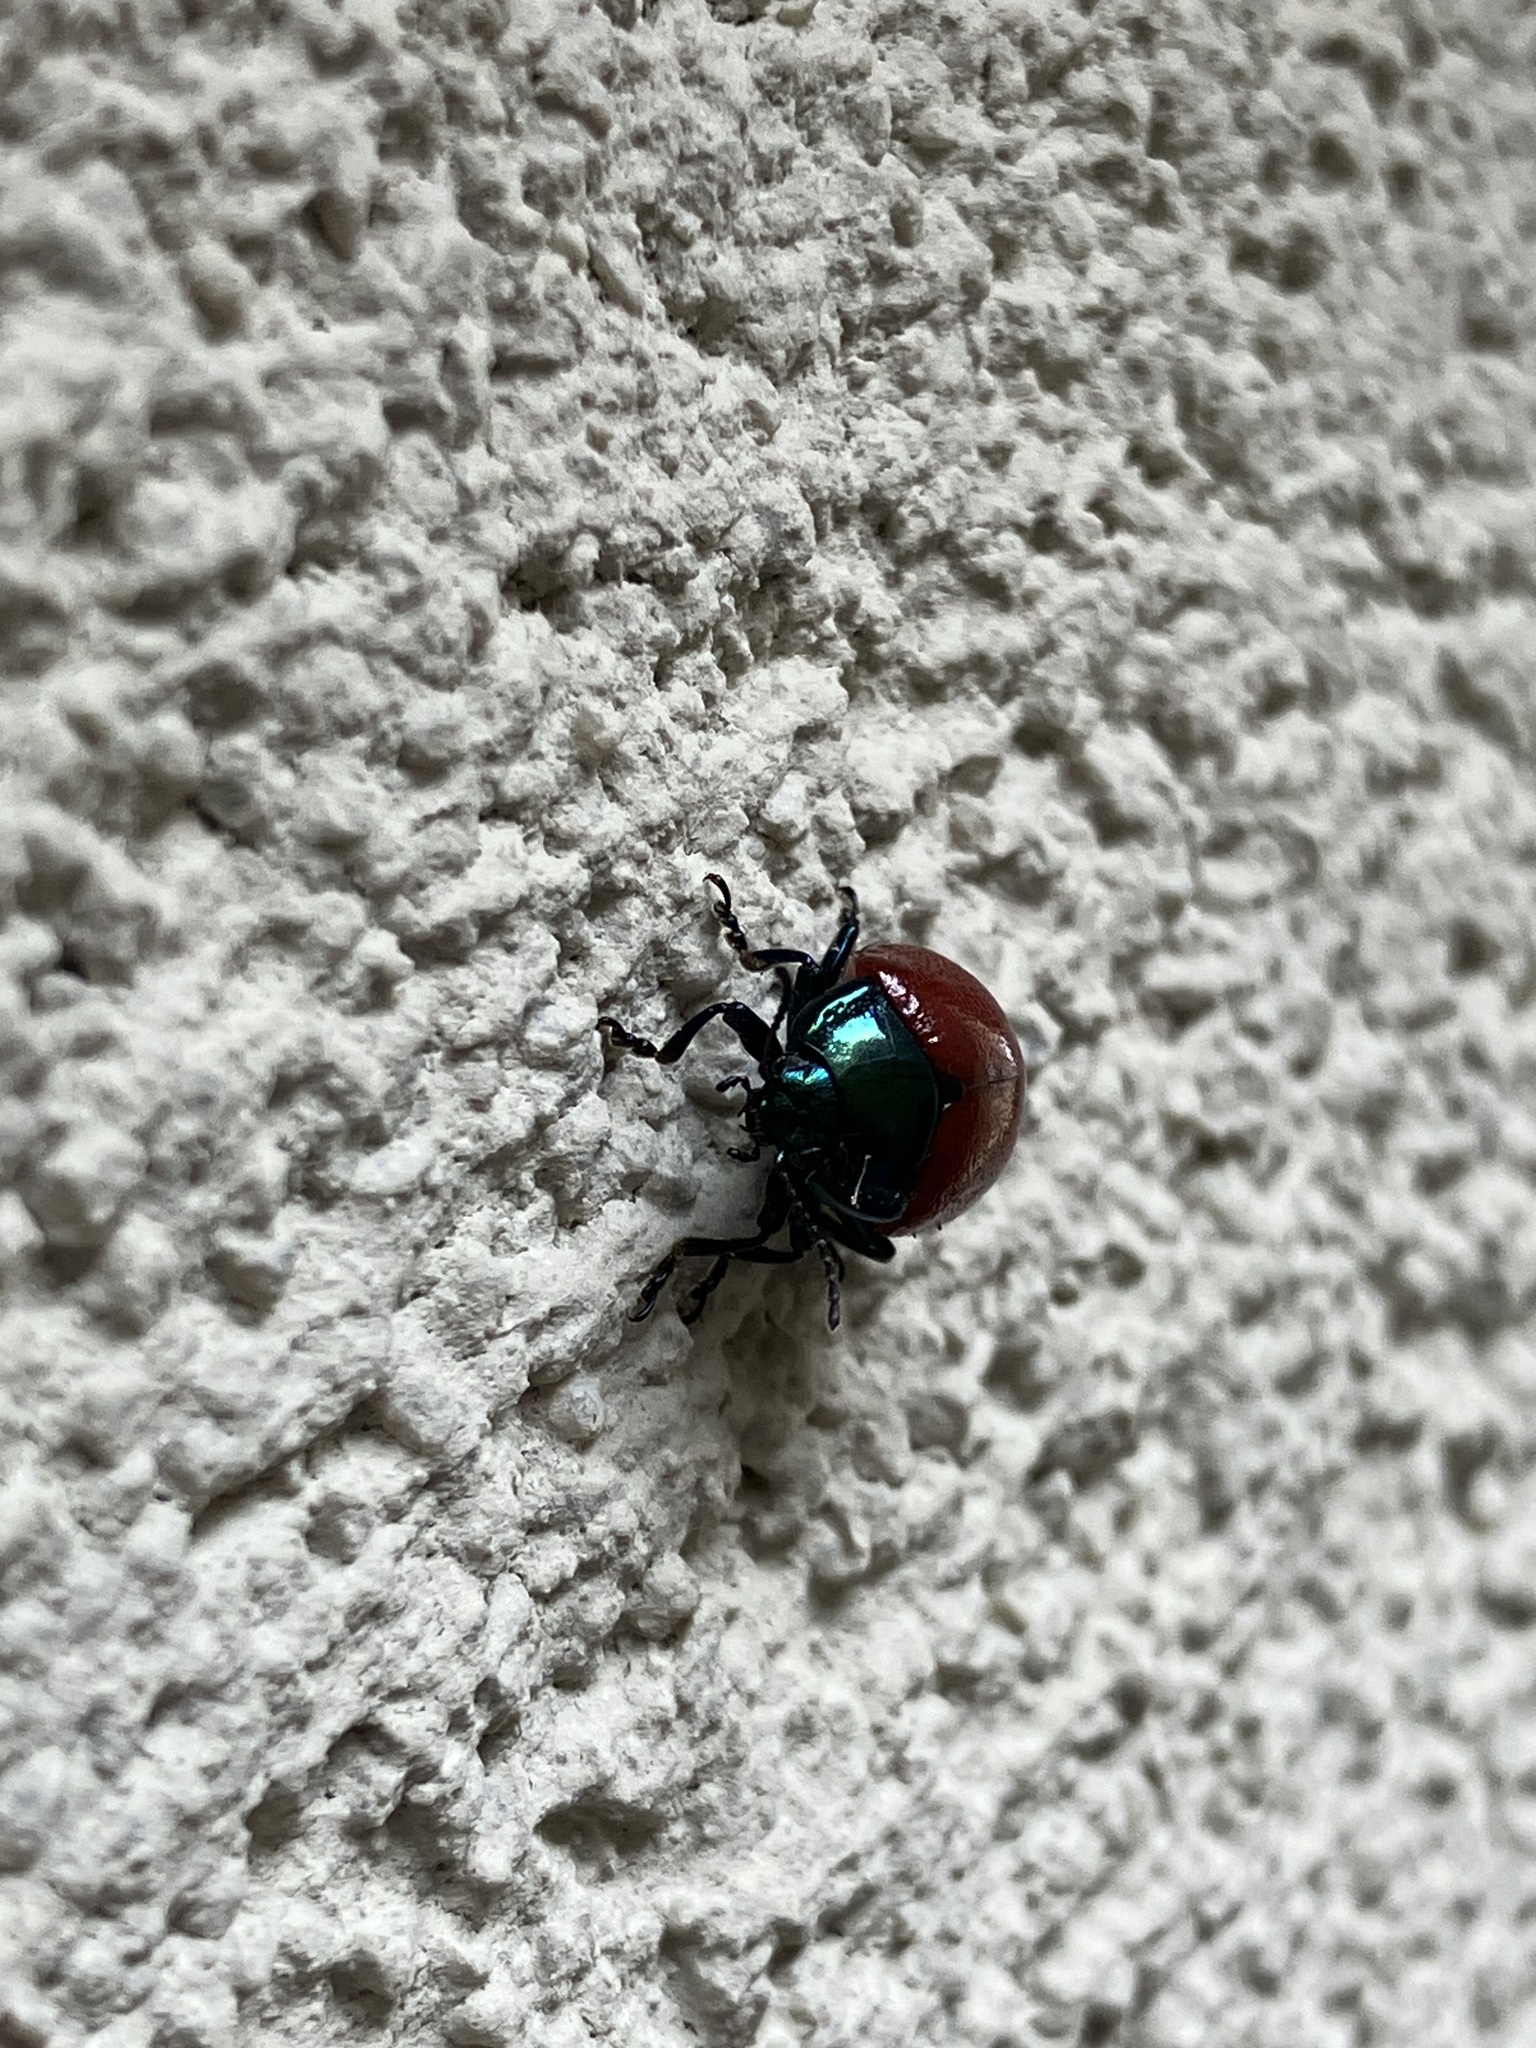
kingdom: Animalia
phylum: Arthropoda
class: Insecta
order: Coleoptera
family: Chrysomelidae
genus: Chrysolina
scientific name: Chrysolina grossa
